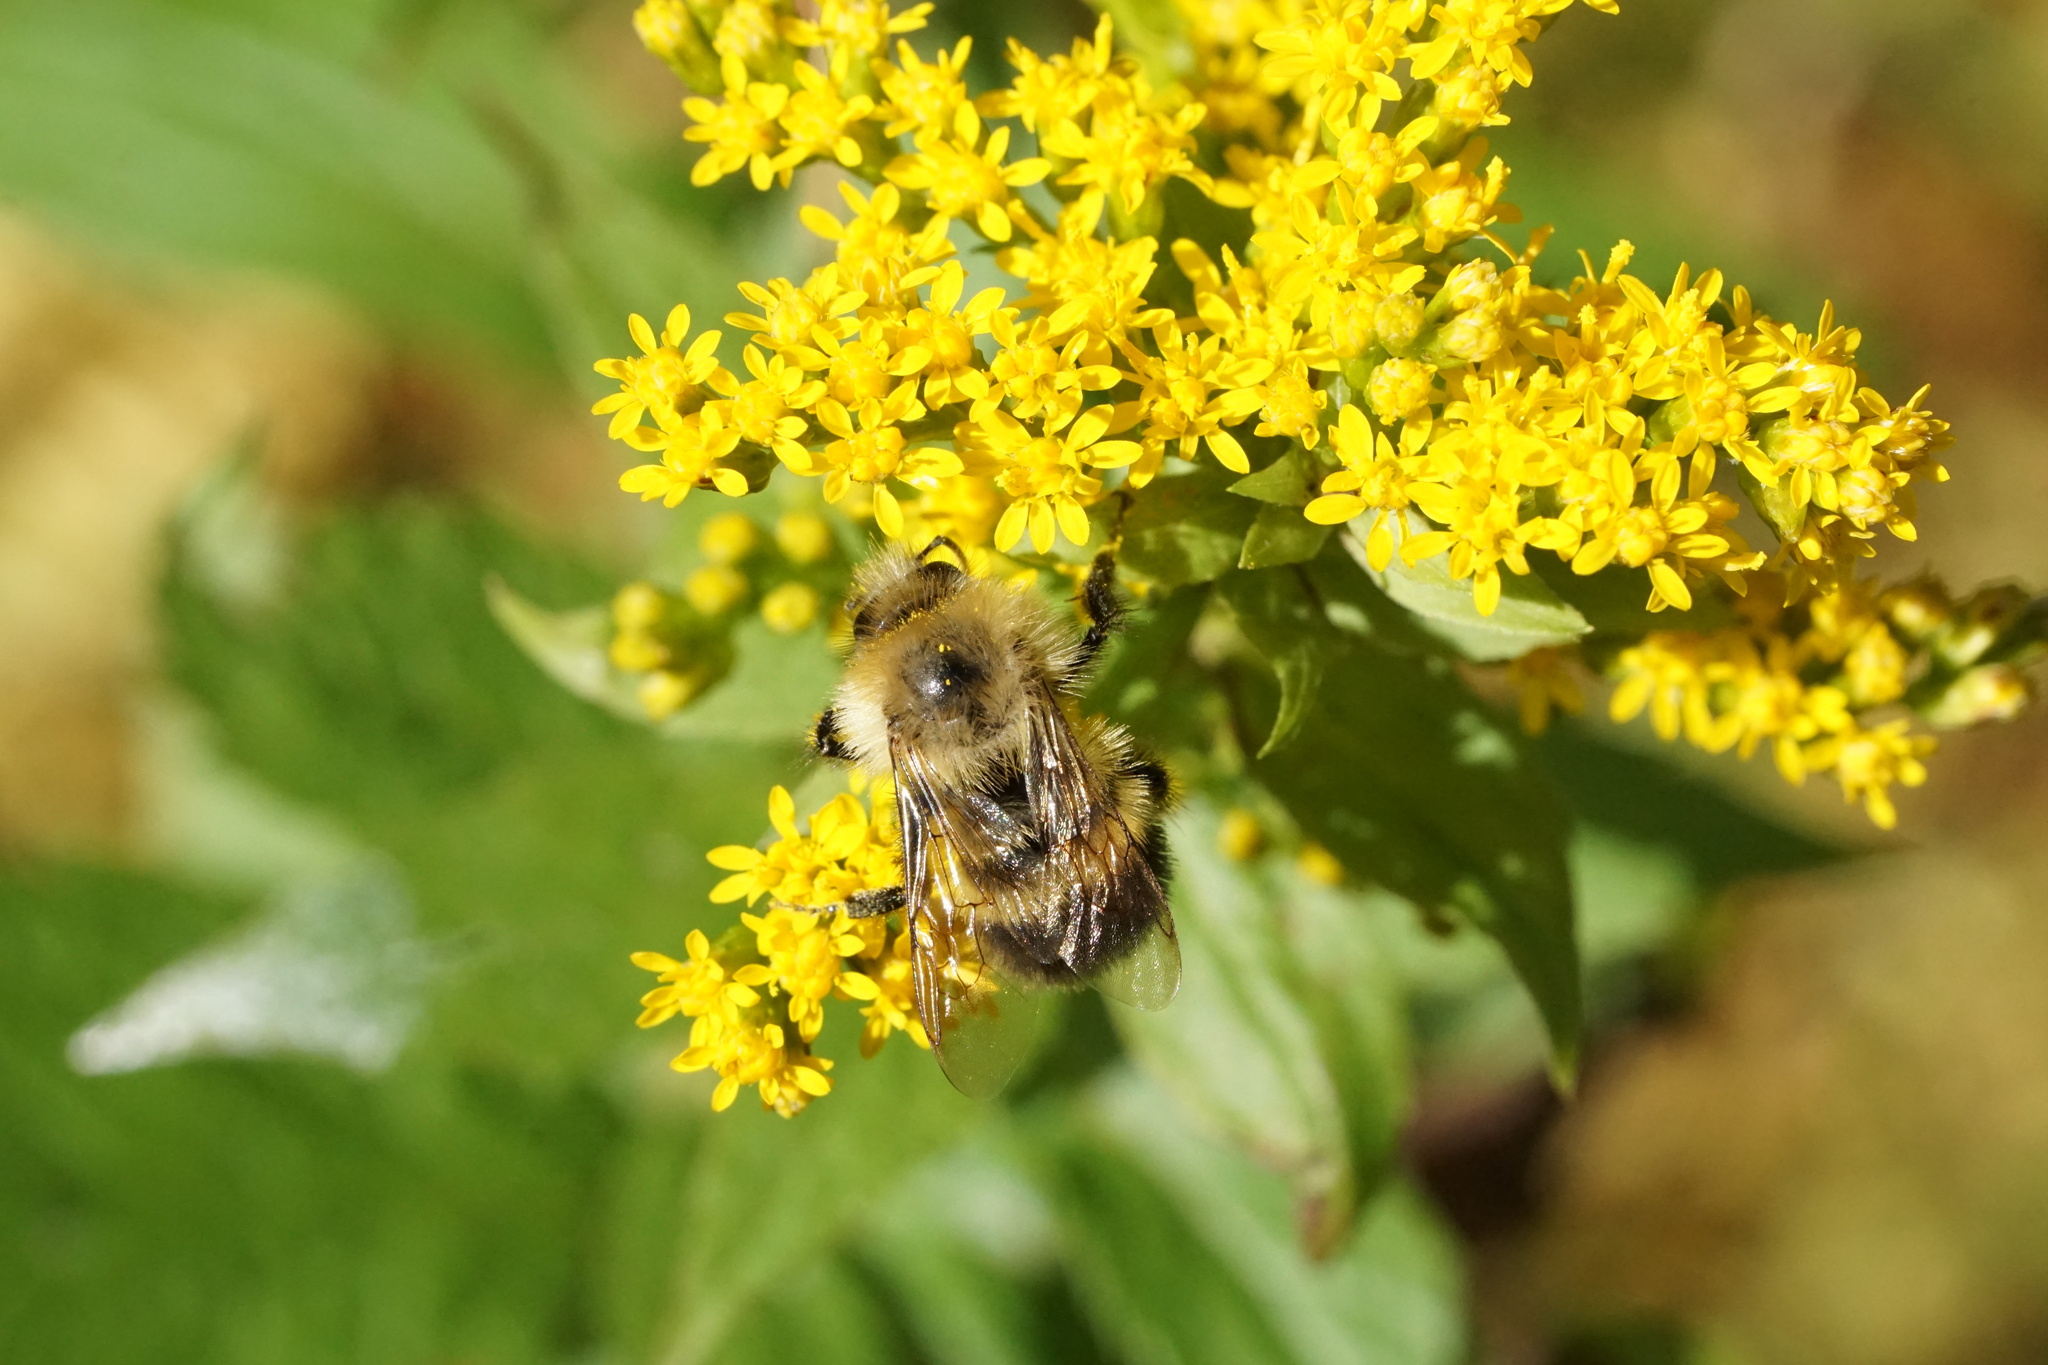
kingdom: Animalia
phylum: Arthropoda
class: Insecta
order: Hymenoptera
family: Apidae
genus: Pyrobombus
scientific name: Pyrobombus
